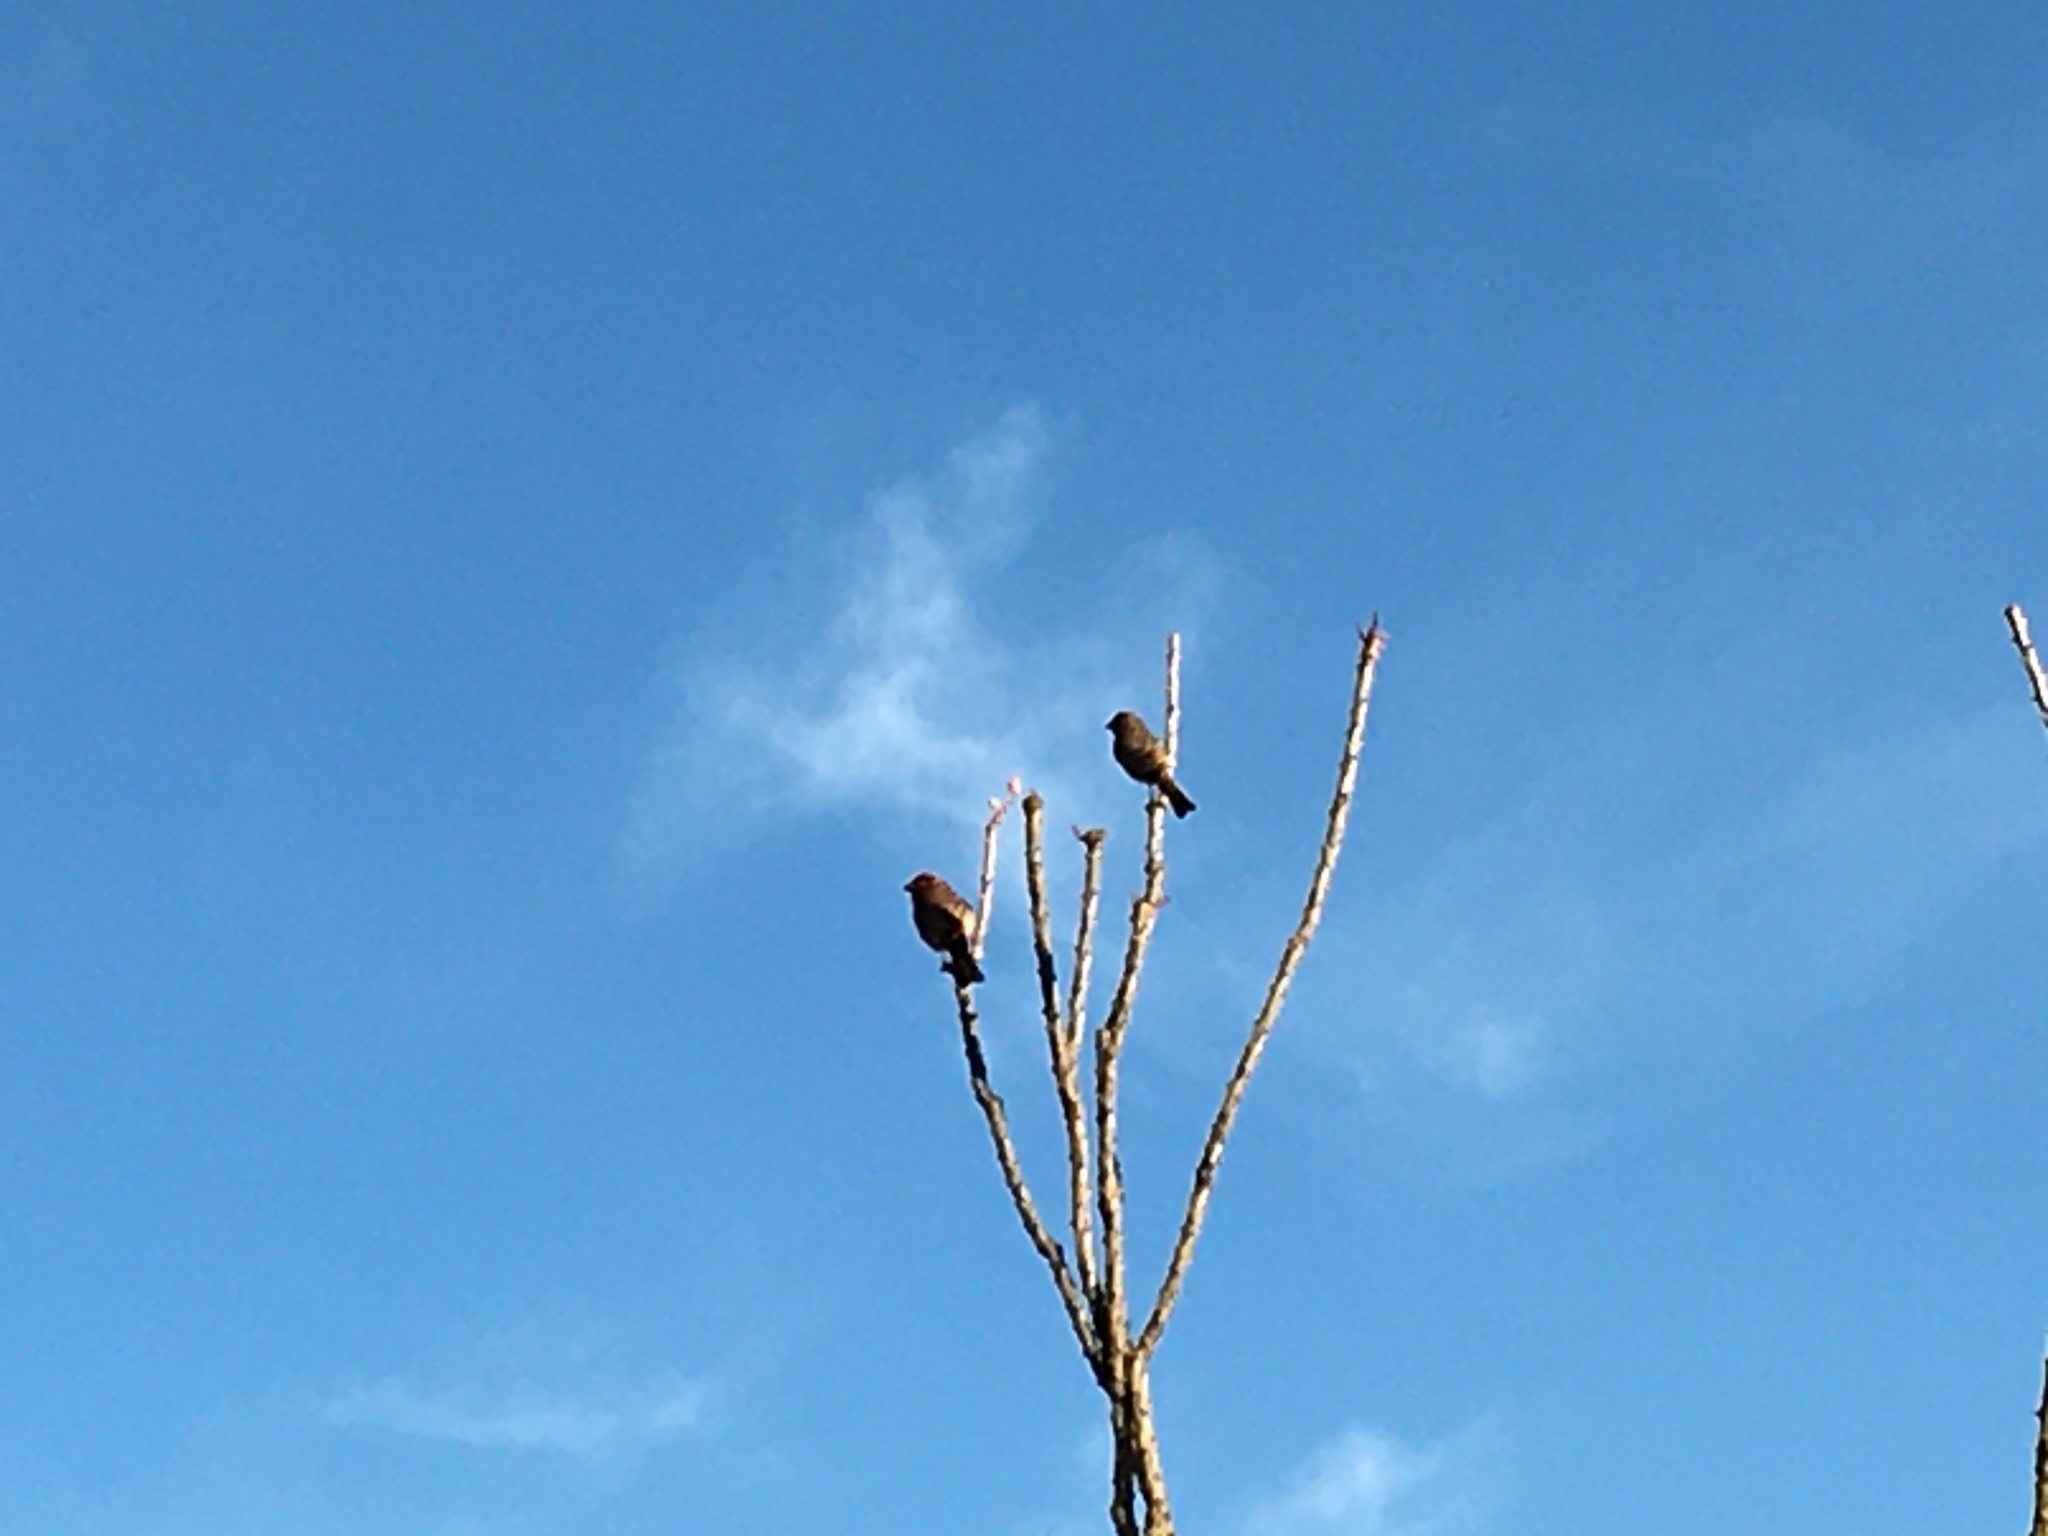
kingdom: Animalia
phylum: Chordata
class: Aves
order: Passeriformes
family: Fringillidae
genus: Haemorhous
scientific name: Haemorhous mexicanus
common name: House finch
